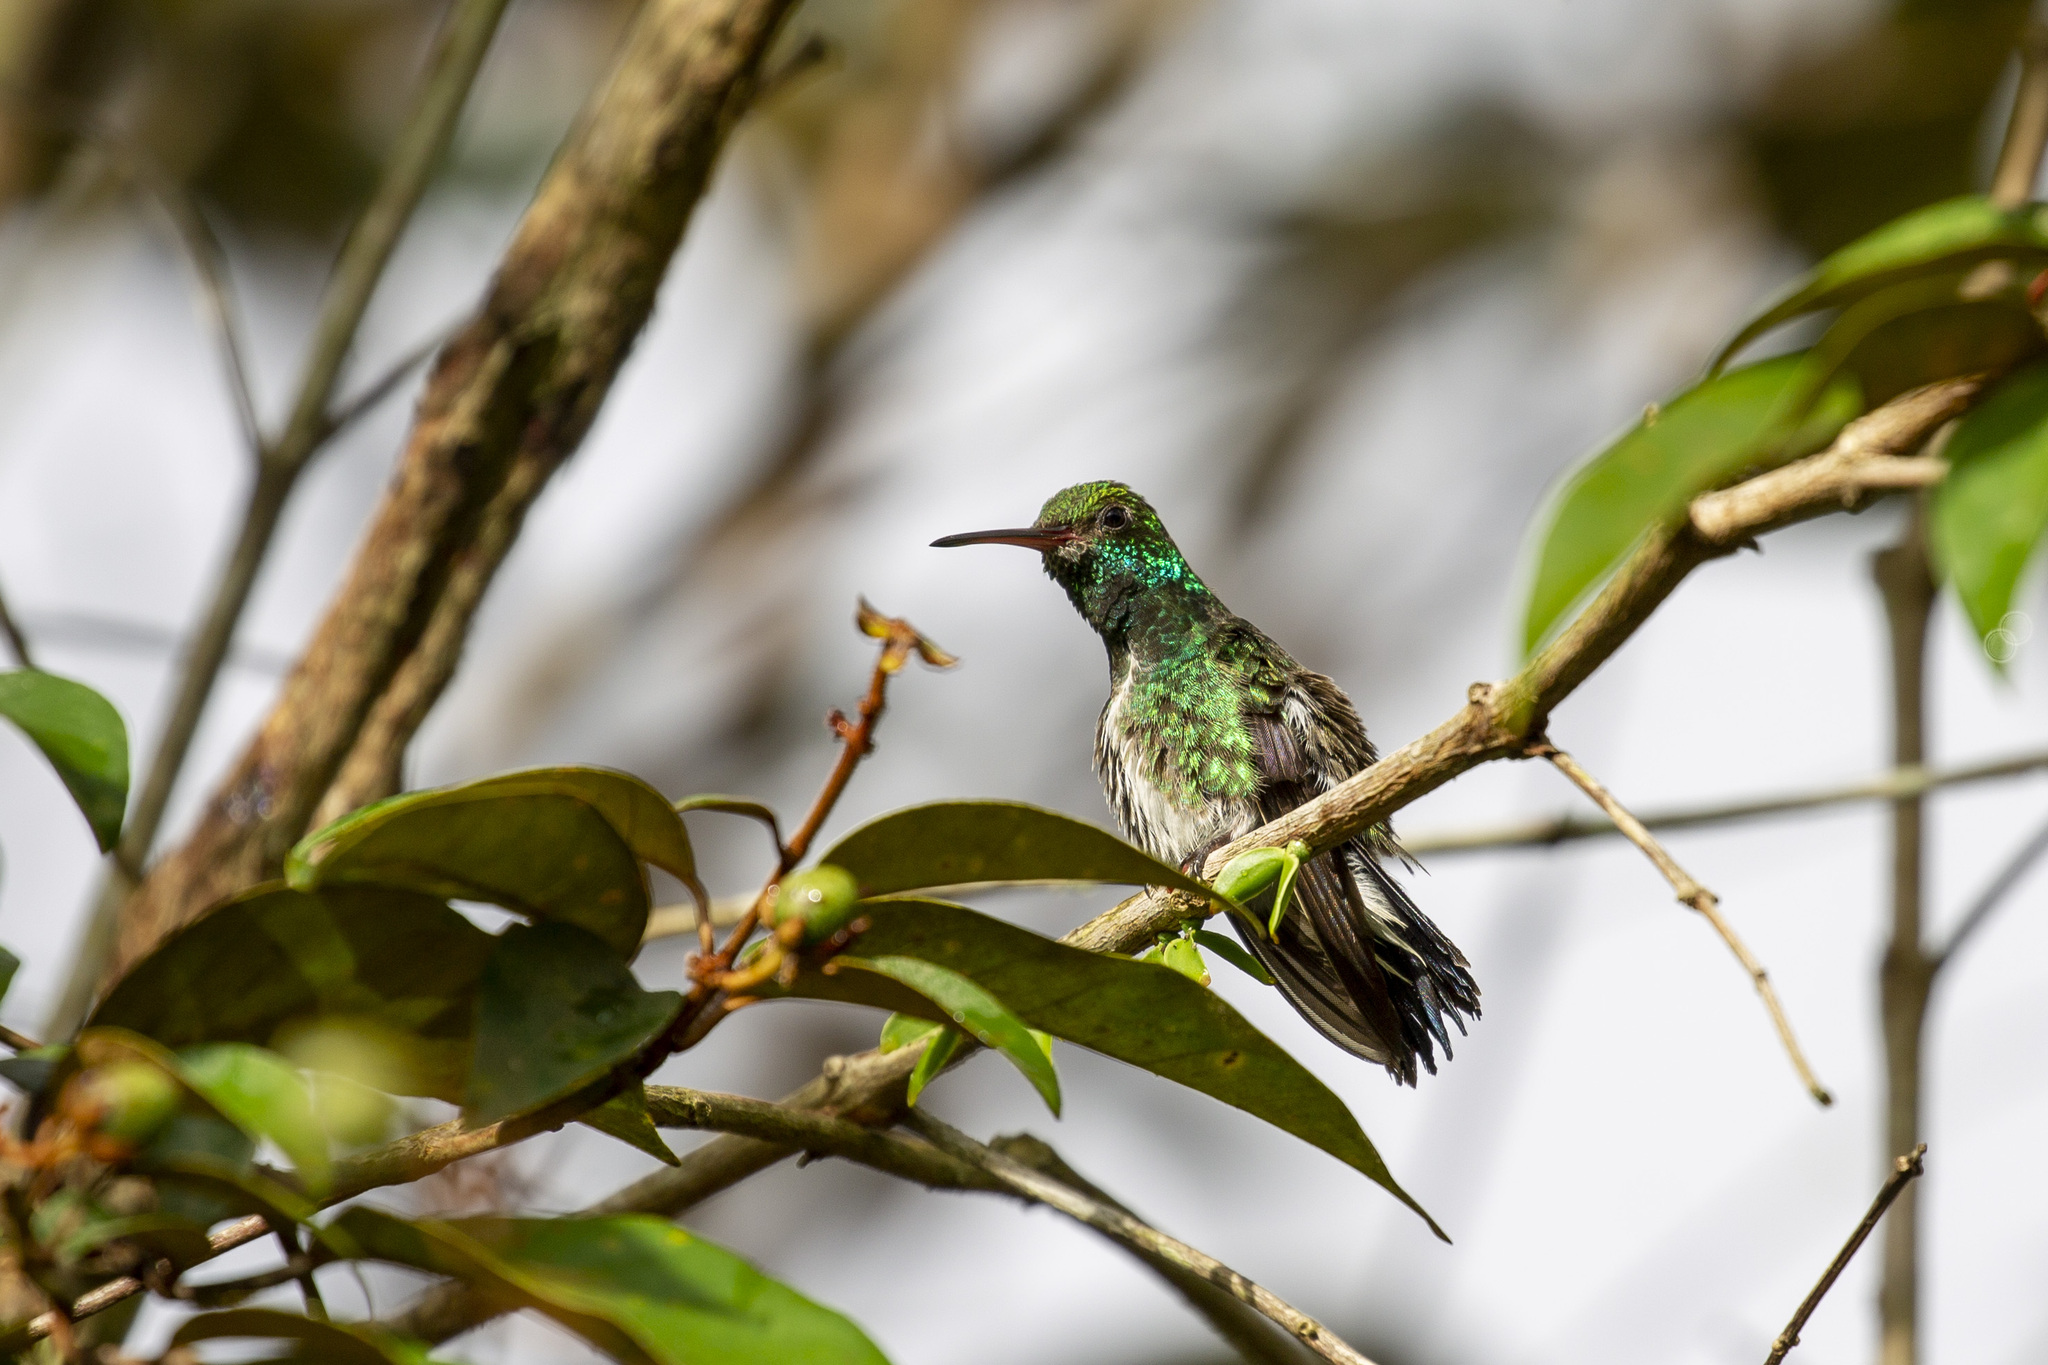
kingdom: Animalia
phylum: Chordata
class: Aves
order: Apodiformes
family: Trochilidae
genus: Chionomesa
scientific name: Chionomesa fimbriata
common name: Glittering-throated emerald
